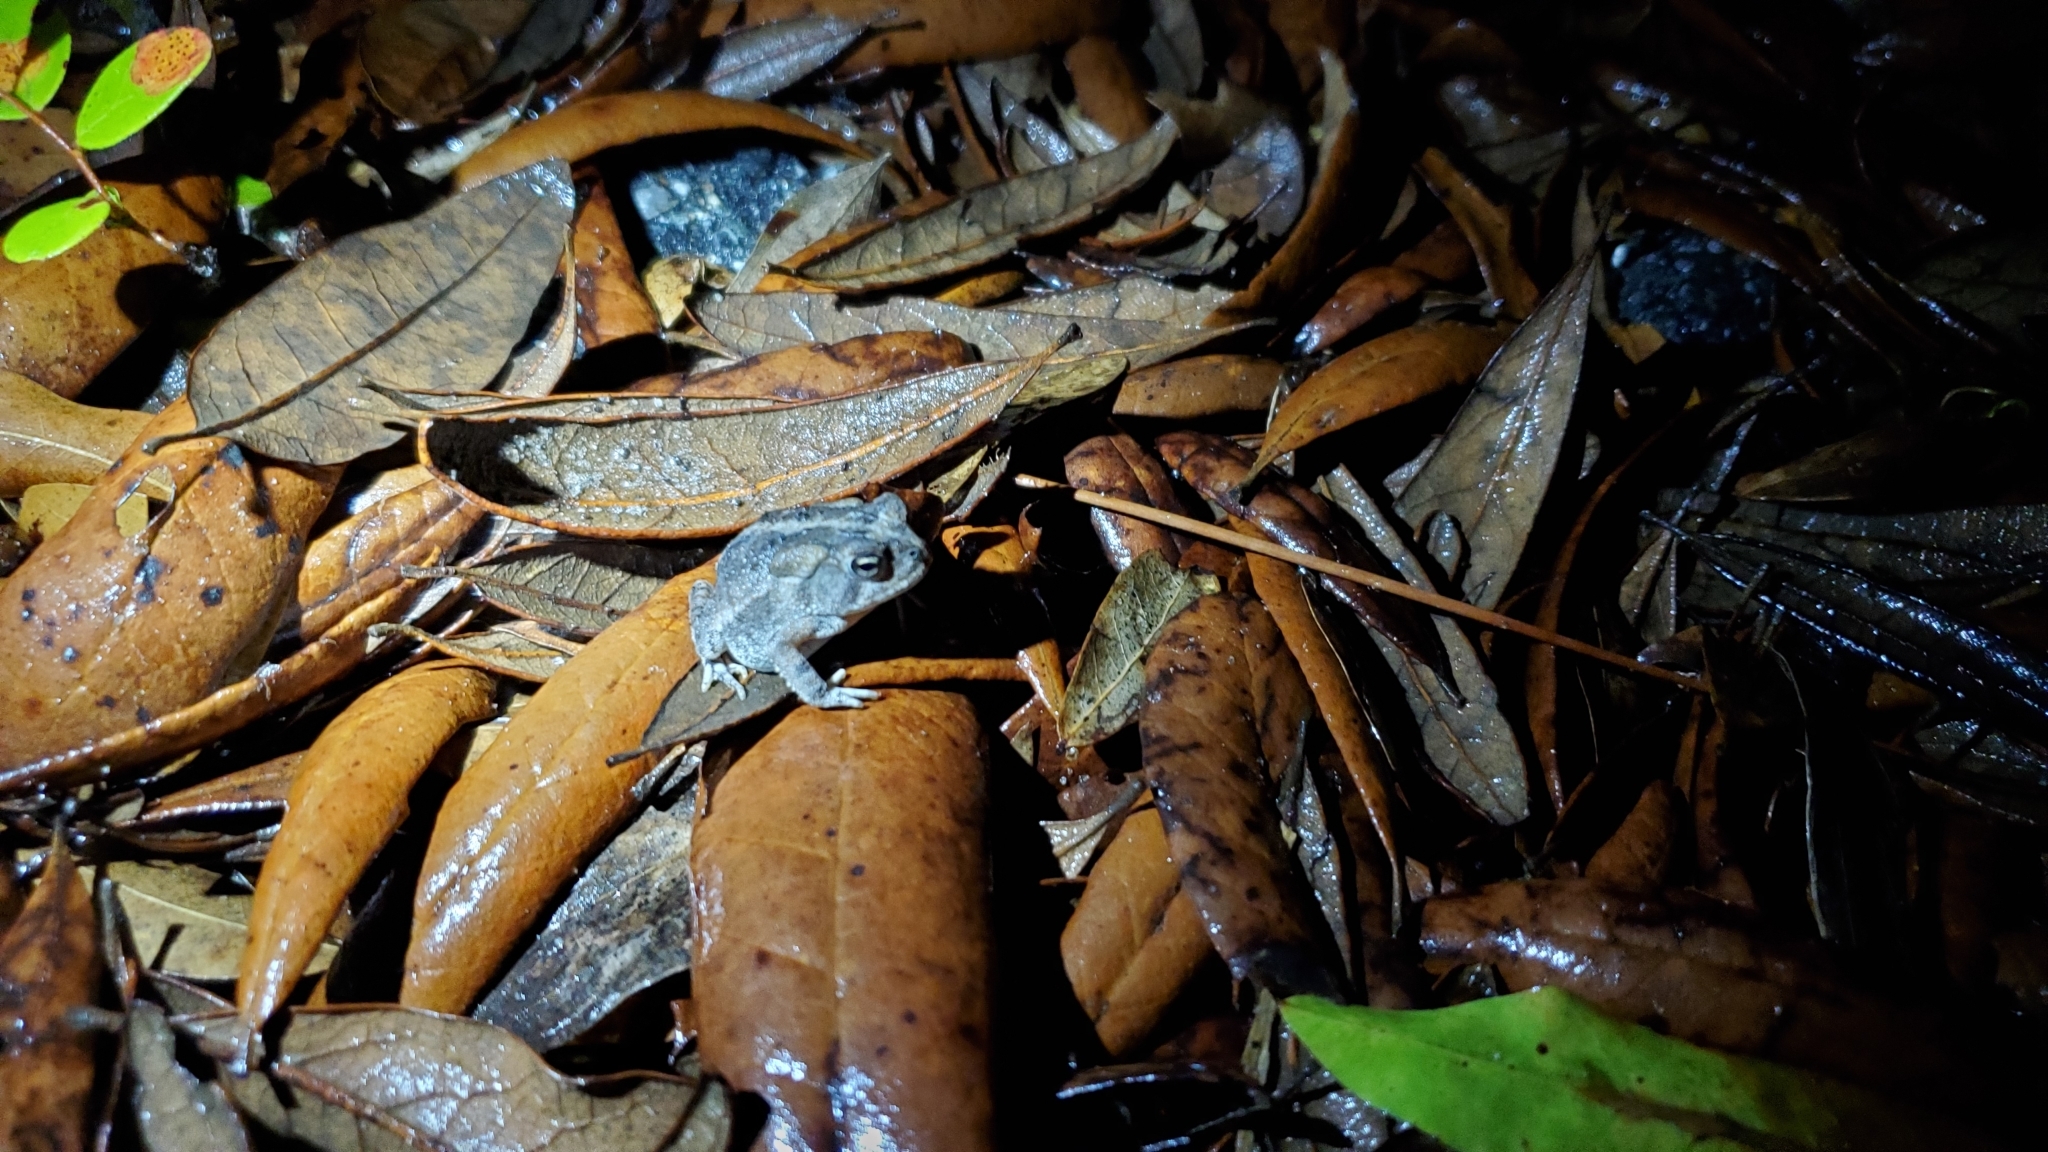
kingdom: Animalia
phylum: Chordata
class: Amphibia
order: Anura
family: Bufonidae
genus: Anaxyrus
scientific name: Anaxyrus terrestris
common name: Southern toad
